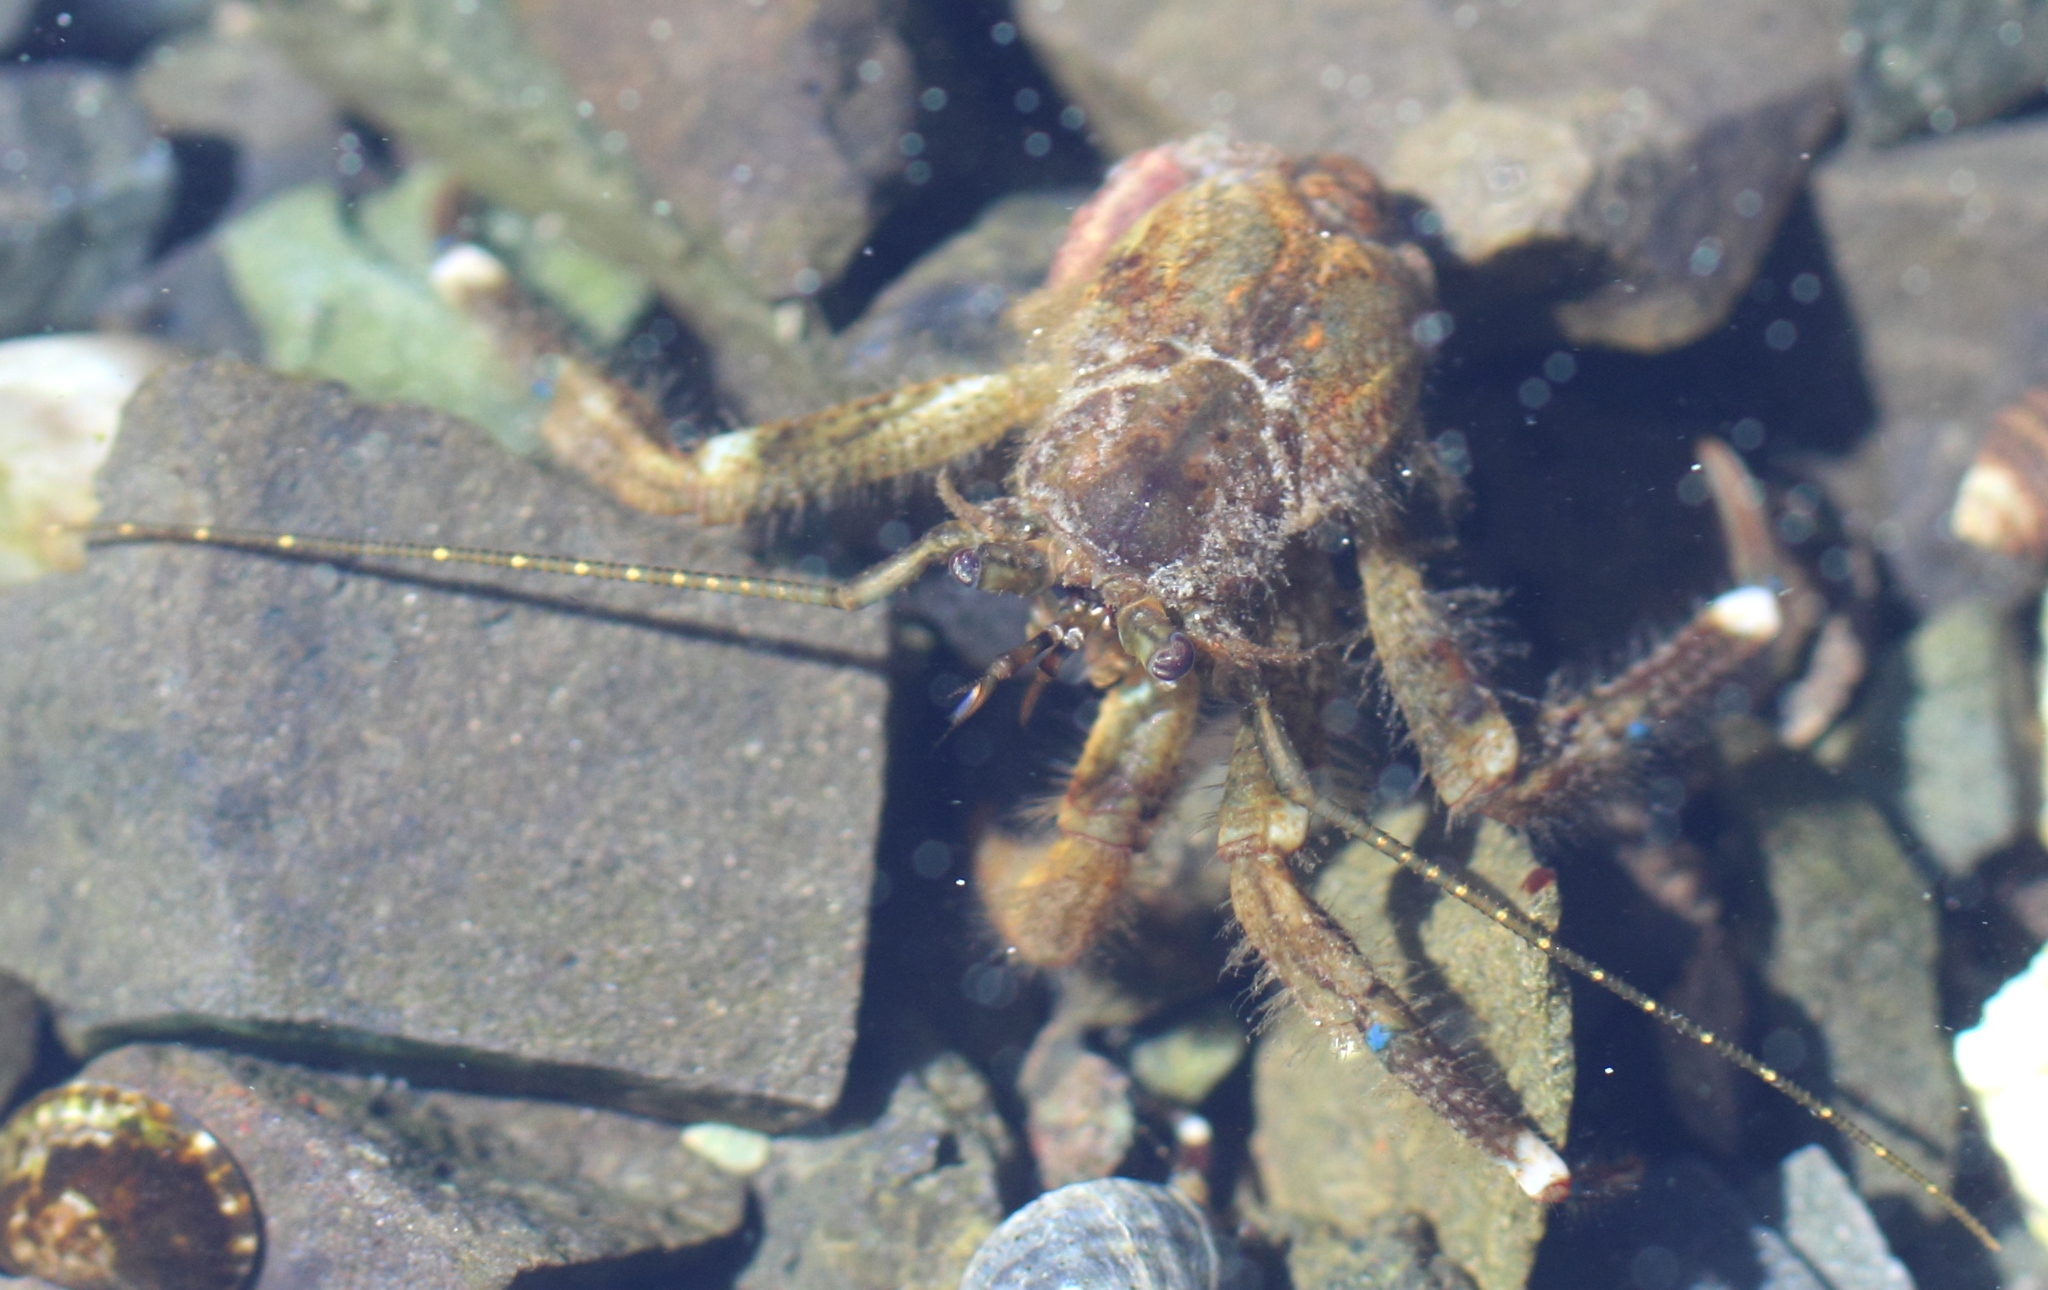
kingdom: Animalia
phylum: Arthropoda
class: Malacostraca
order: Decapoda
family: Paguridae
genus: Pagurus
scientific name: Pagurus hirsutiusculus
